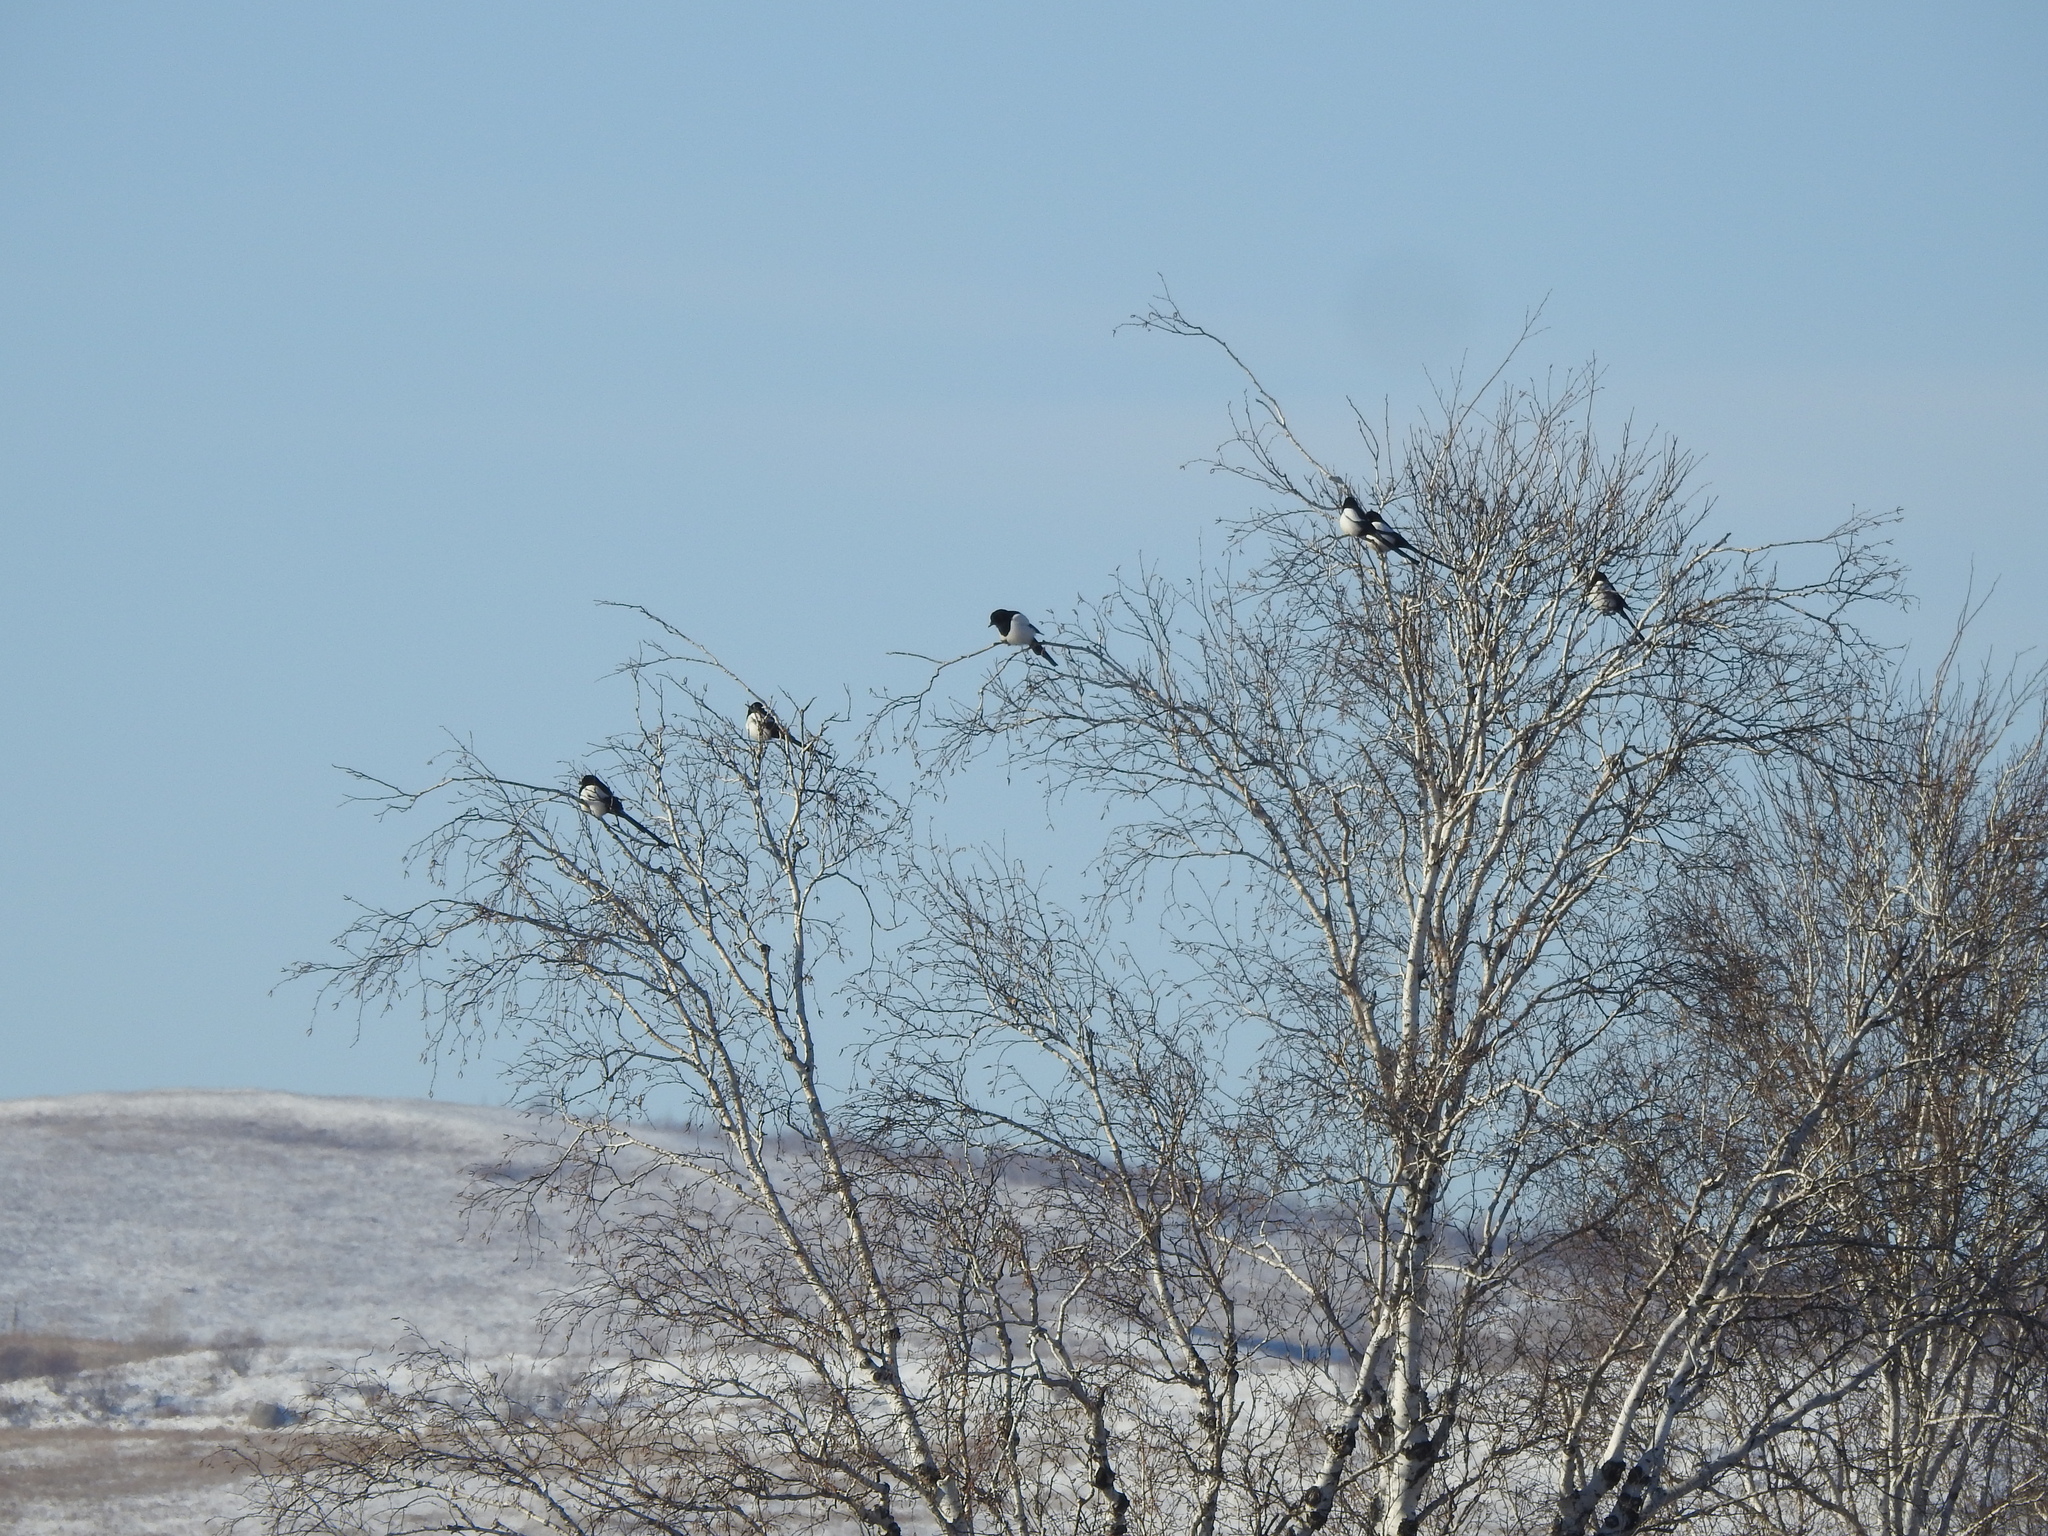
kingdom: Animalia
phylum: Chordata
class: Aves
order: Passeriformes
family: Corvidae
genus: Pica
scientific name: Pica pica
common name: Eurasian magpie
